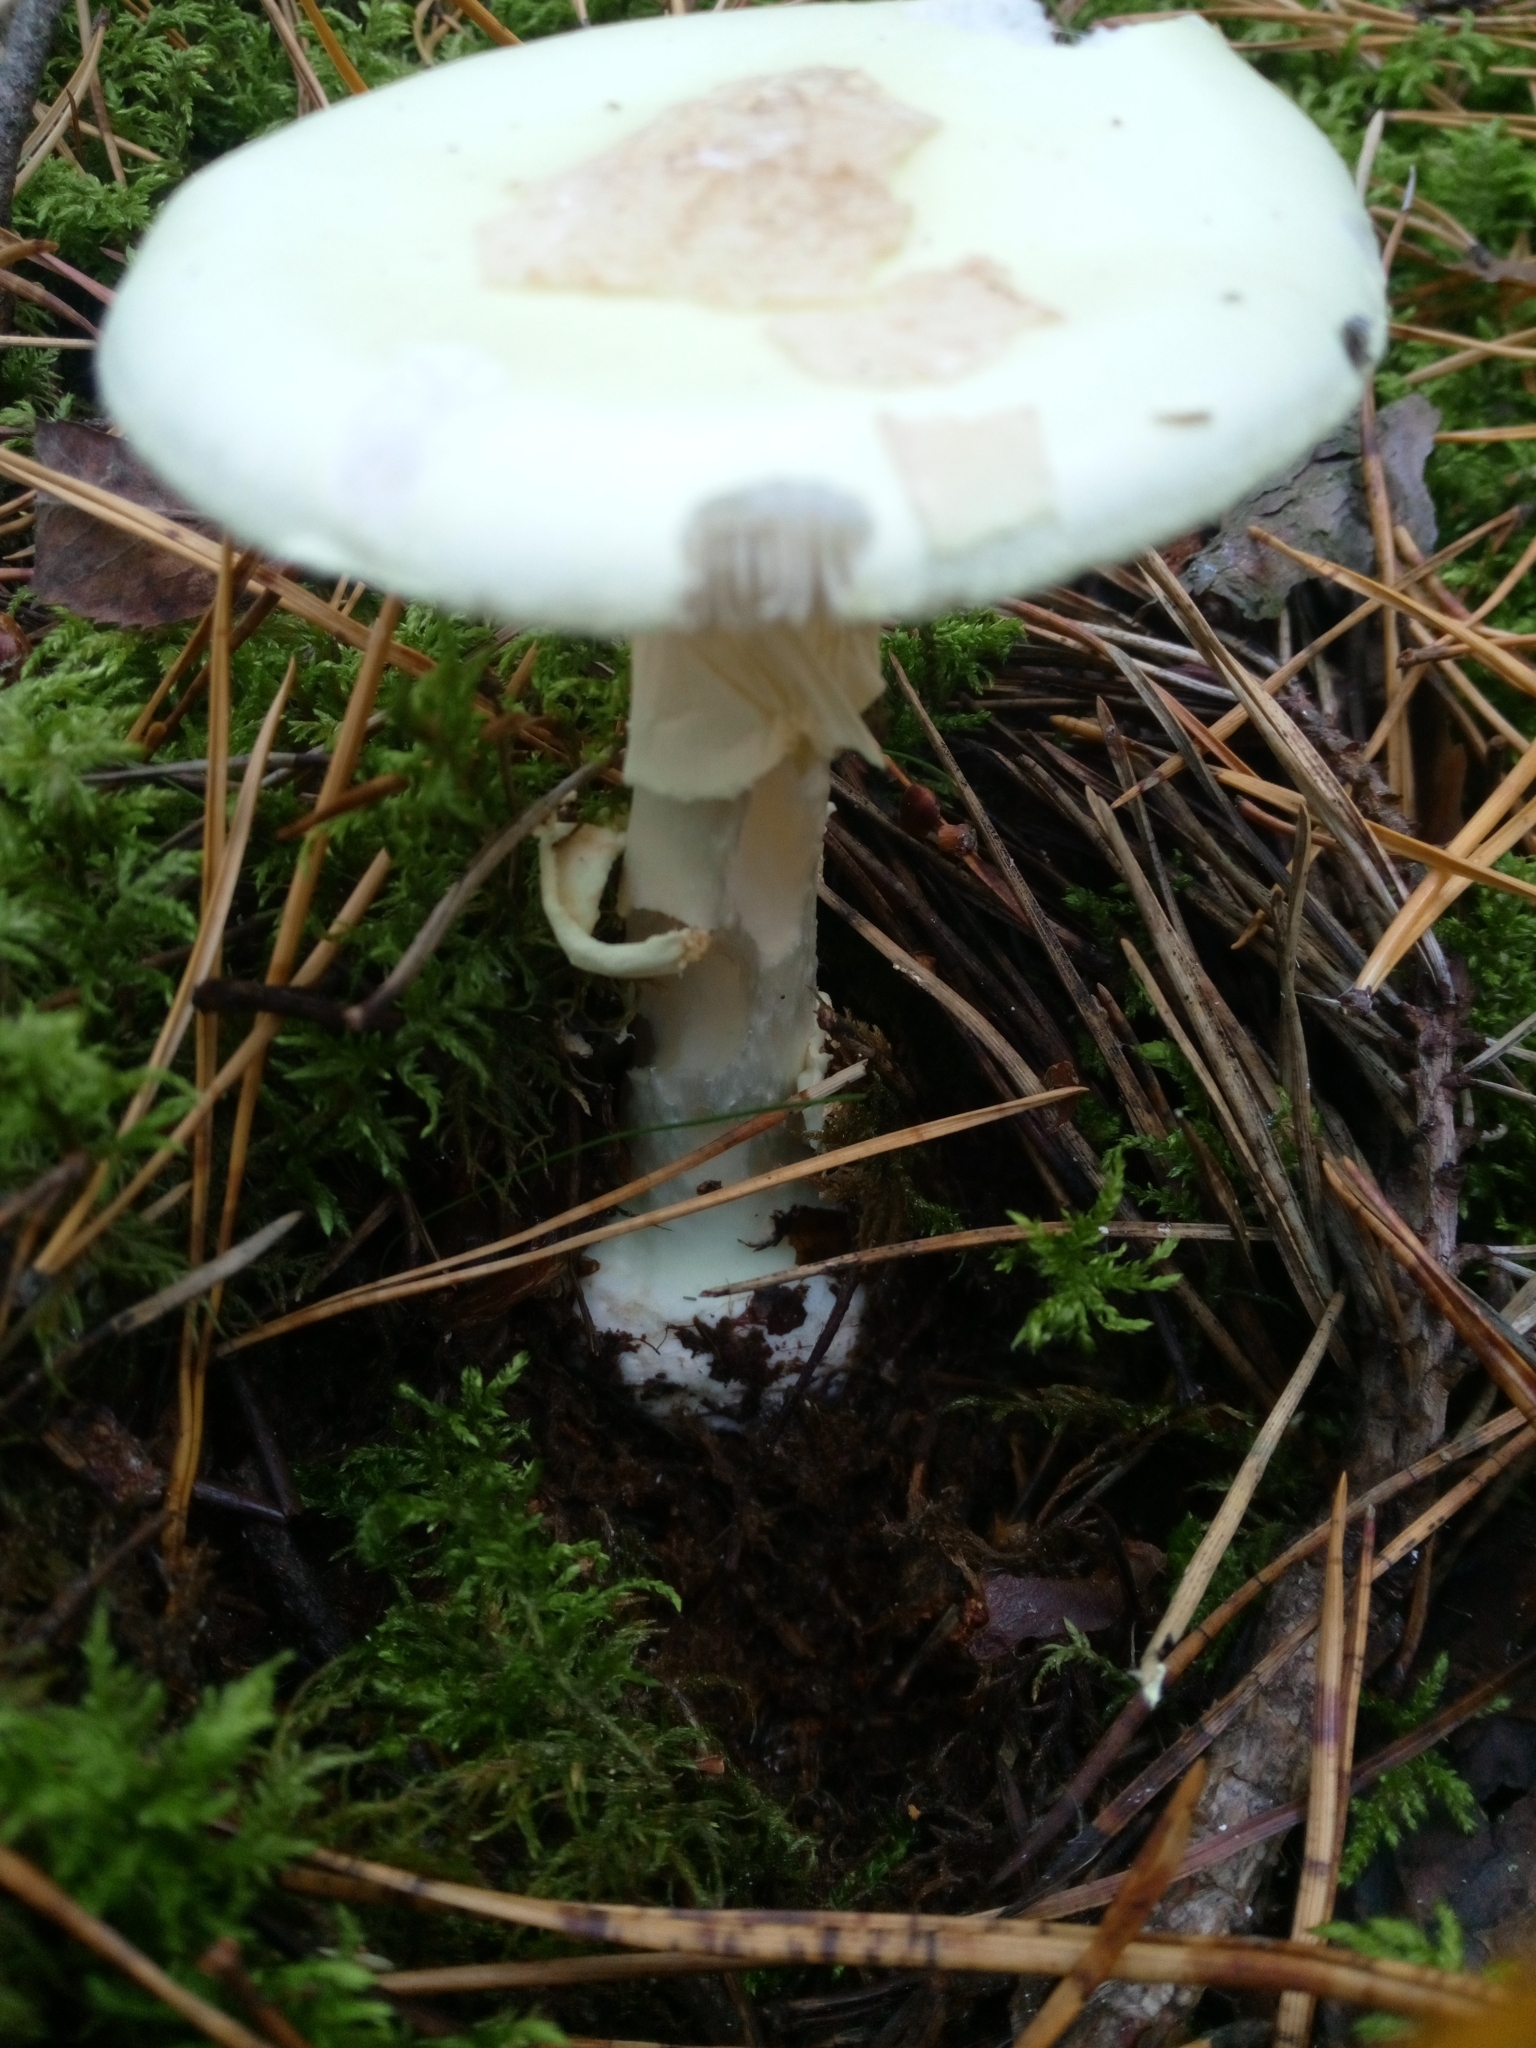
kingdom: Fungi
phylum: Basidiomycota
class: Agaricomycetes
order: Agaricales
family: Amanitaceae
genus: Amanita
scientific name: Amanita citrina
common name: False death-cap
